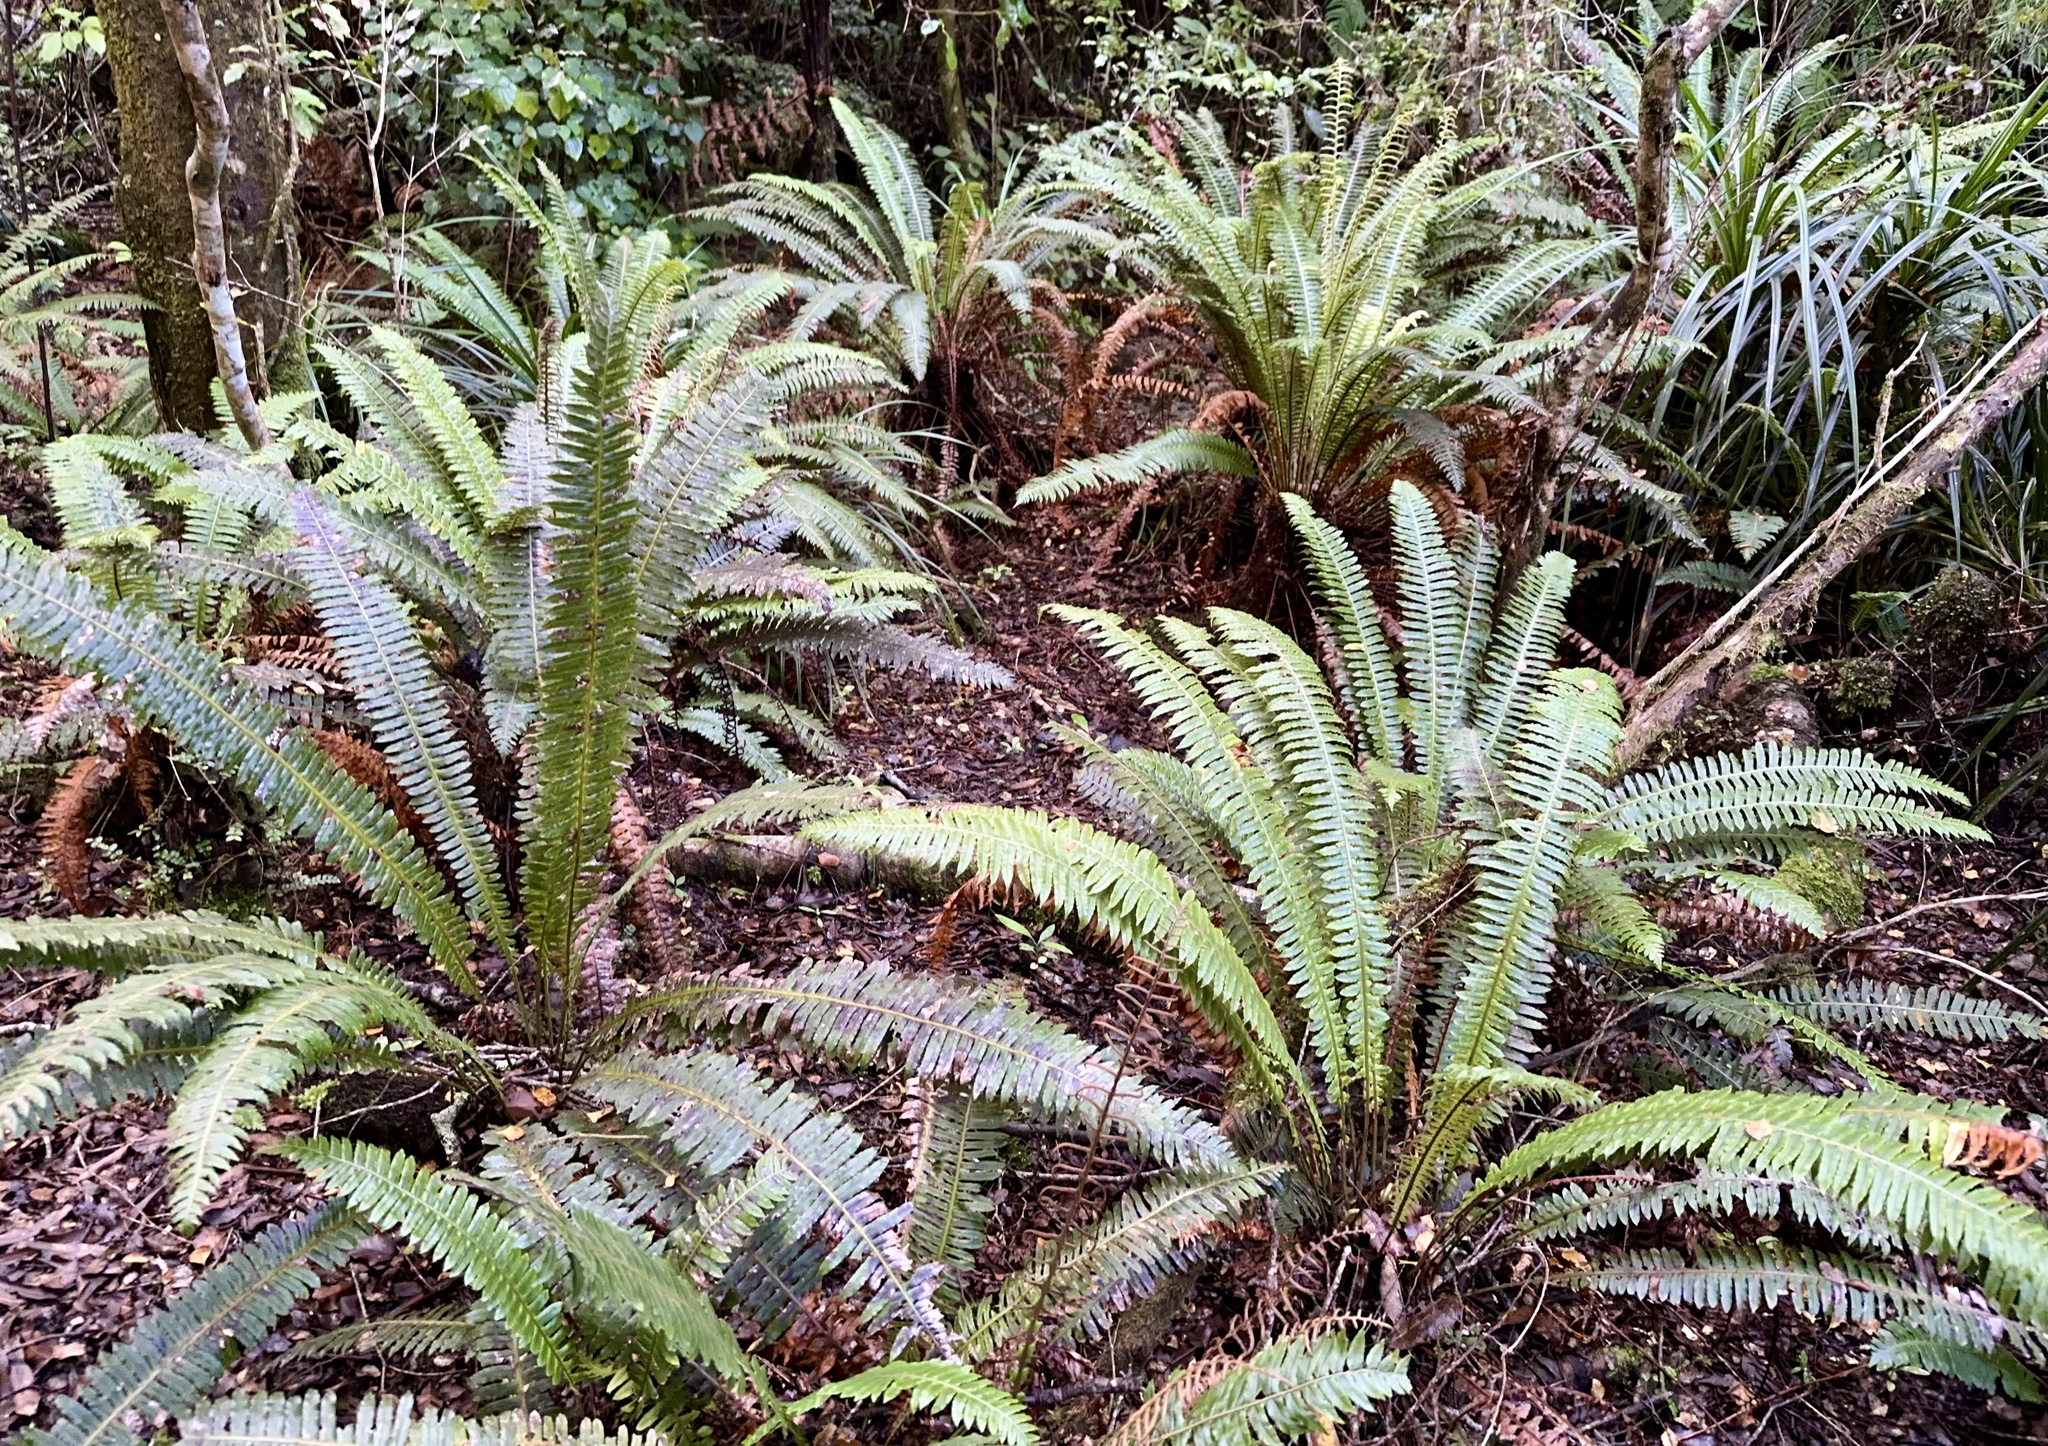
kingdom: Plantae
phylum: Tracheophyta
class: Polypodiopsida
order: Polypodiales
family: Blechnaceae
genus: Lomaria
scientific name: Lomaria discolor
